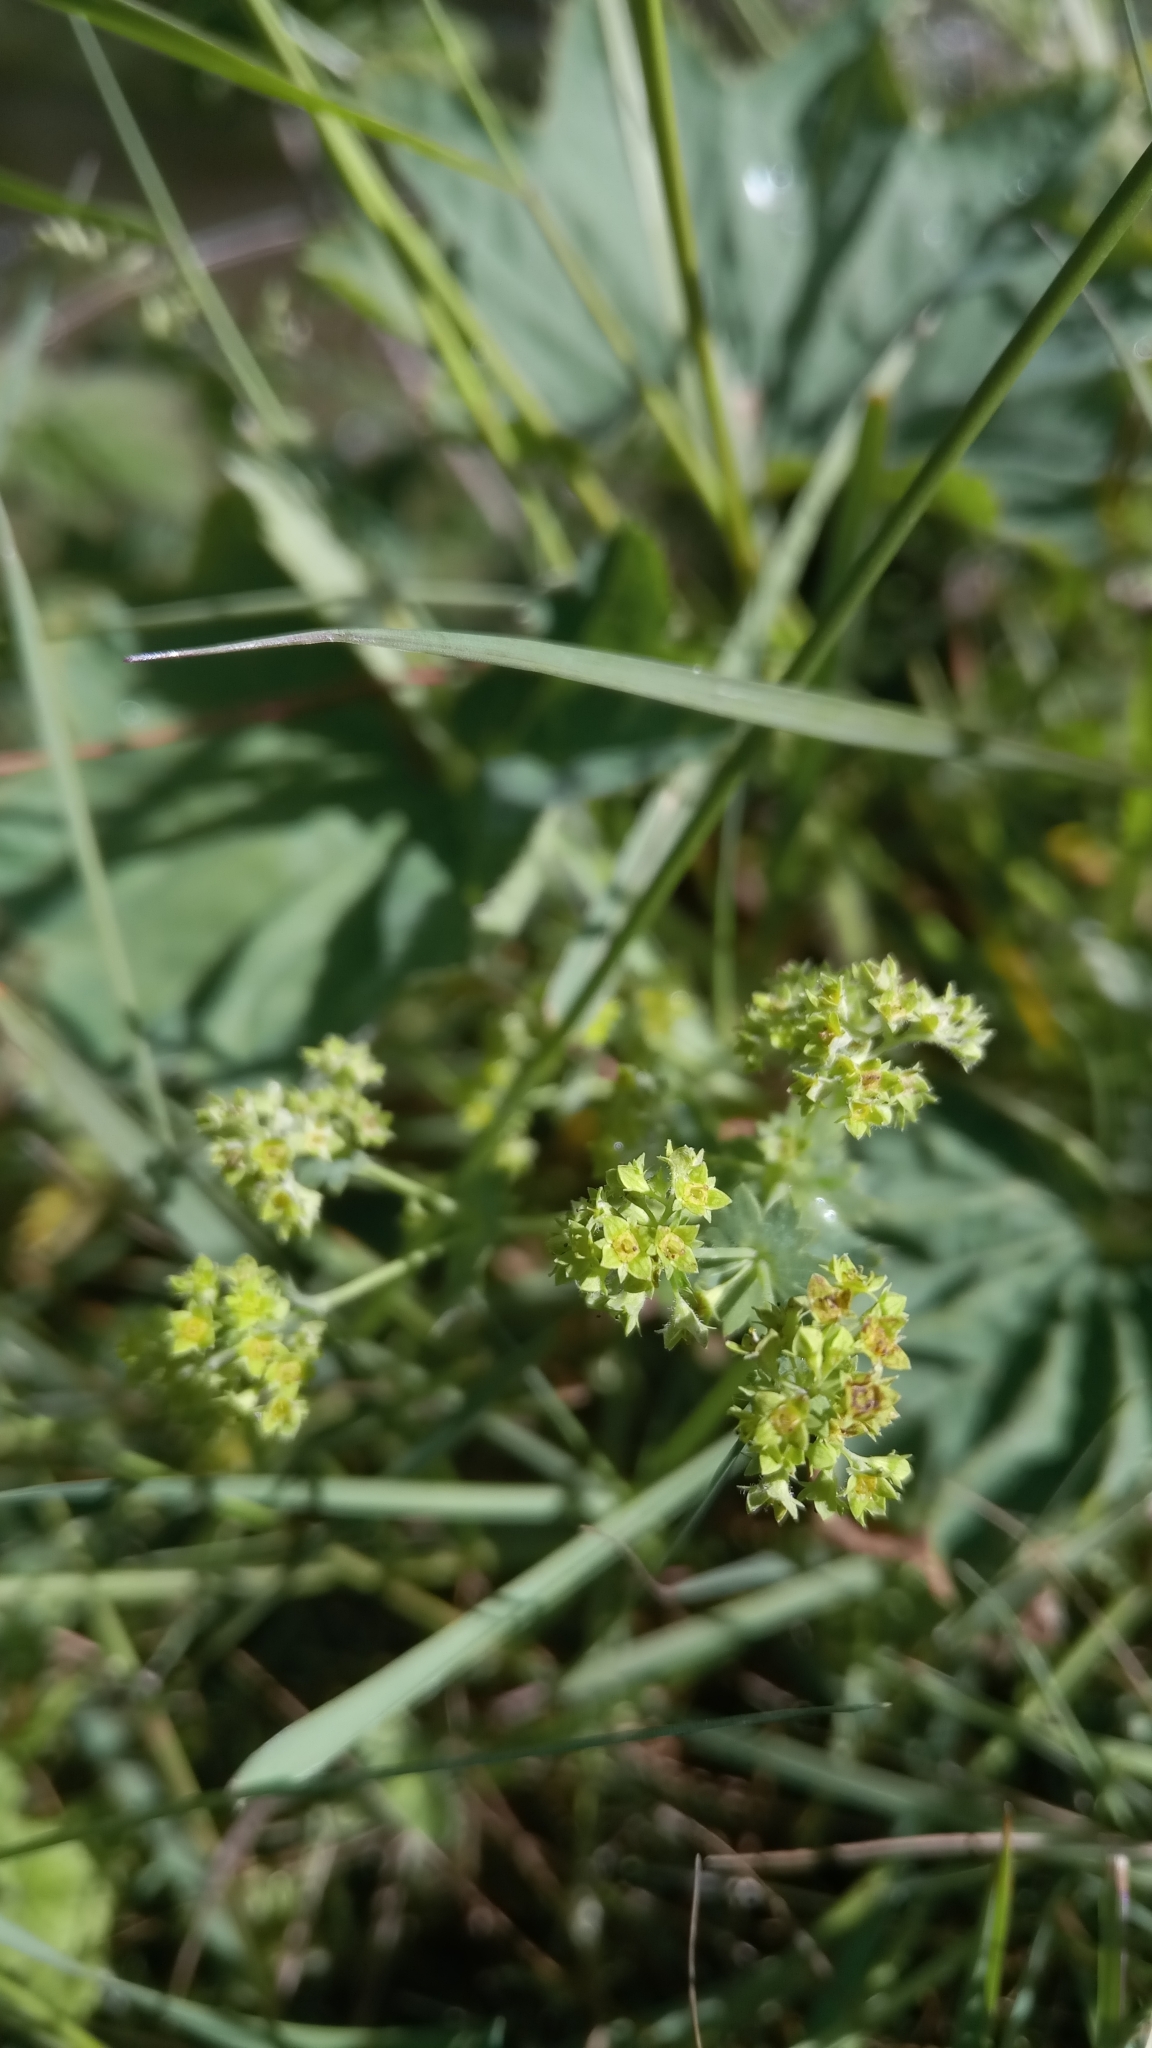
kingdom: Plantae
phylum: Tracheophyta
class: Magnoliopsida
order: Rosales
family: Rosaceae
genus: Alchemilla
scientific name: Alchemilla vulgaris
